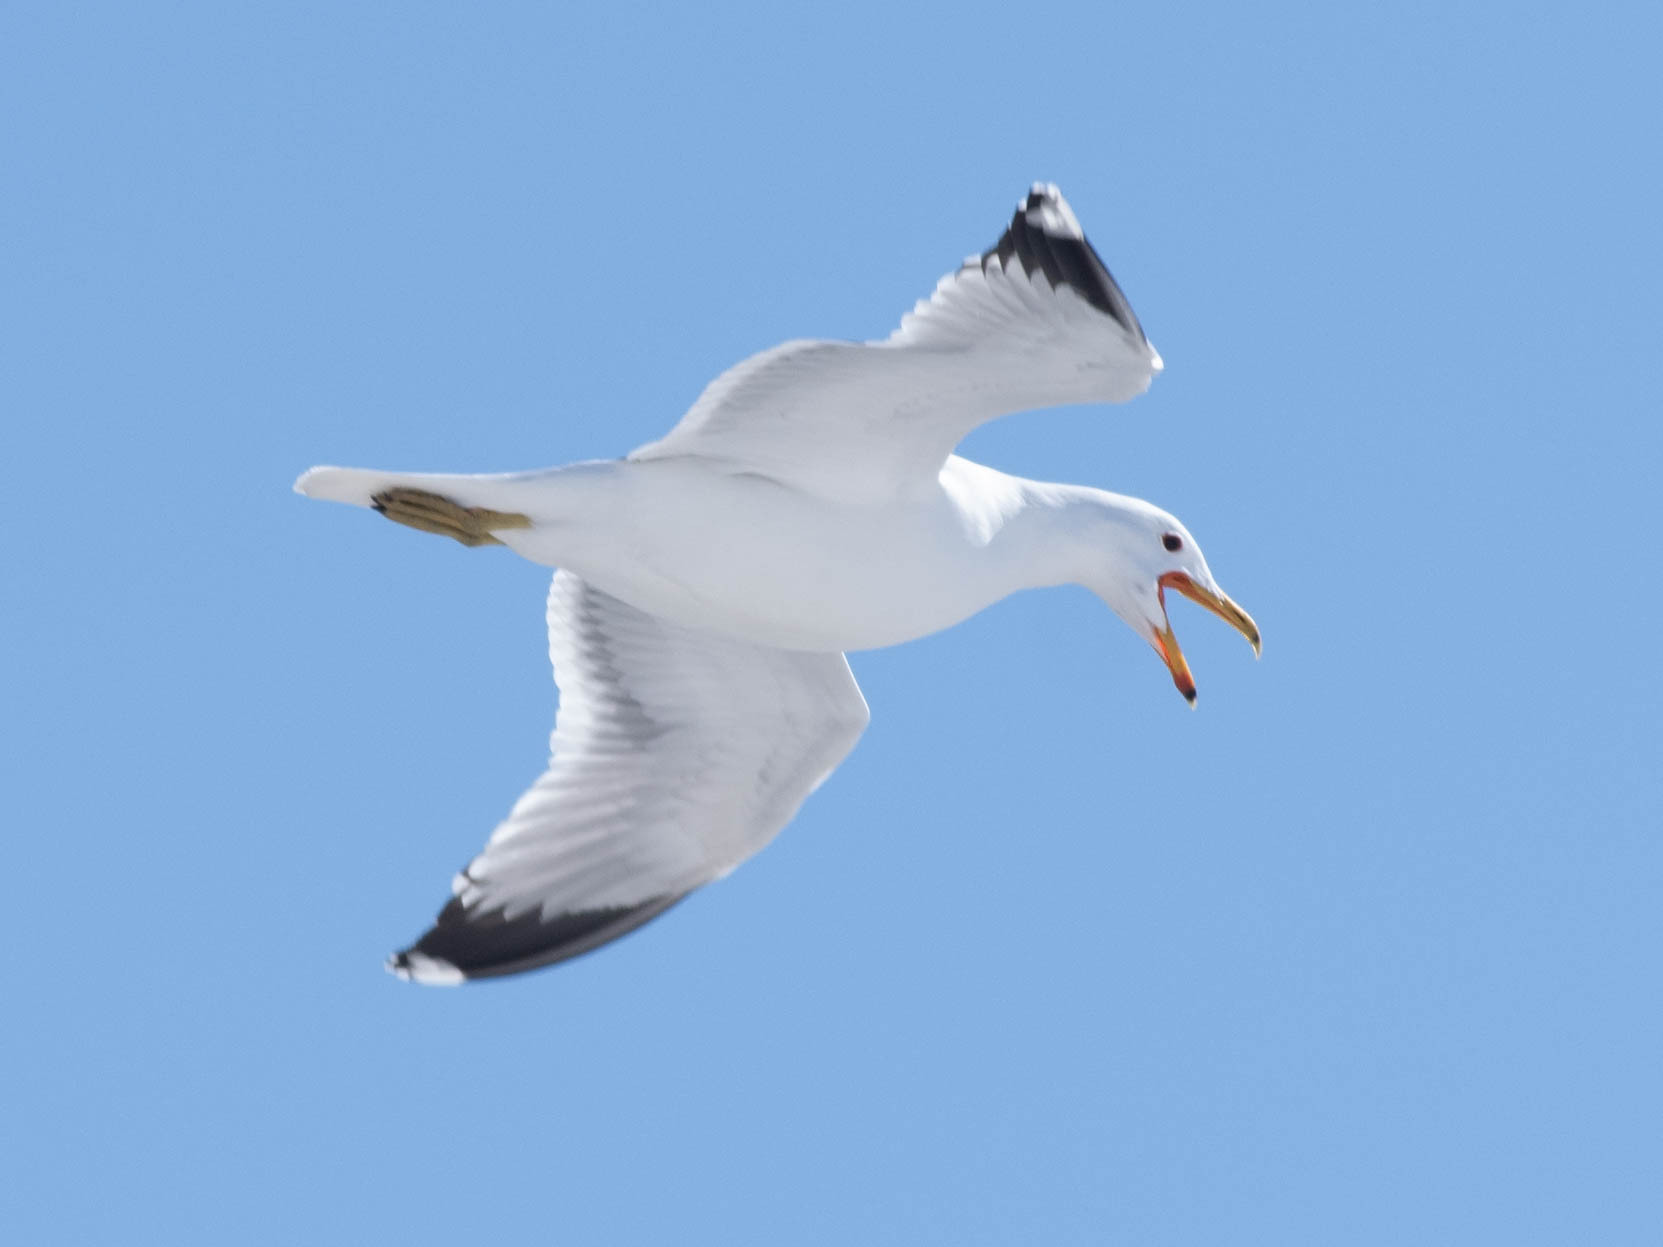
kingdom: Animalia
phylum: Chordata
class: Aves
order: Charadriiformes
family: Laridae
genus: Larus
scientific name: Larus californicus
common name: California gull
